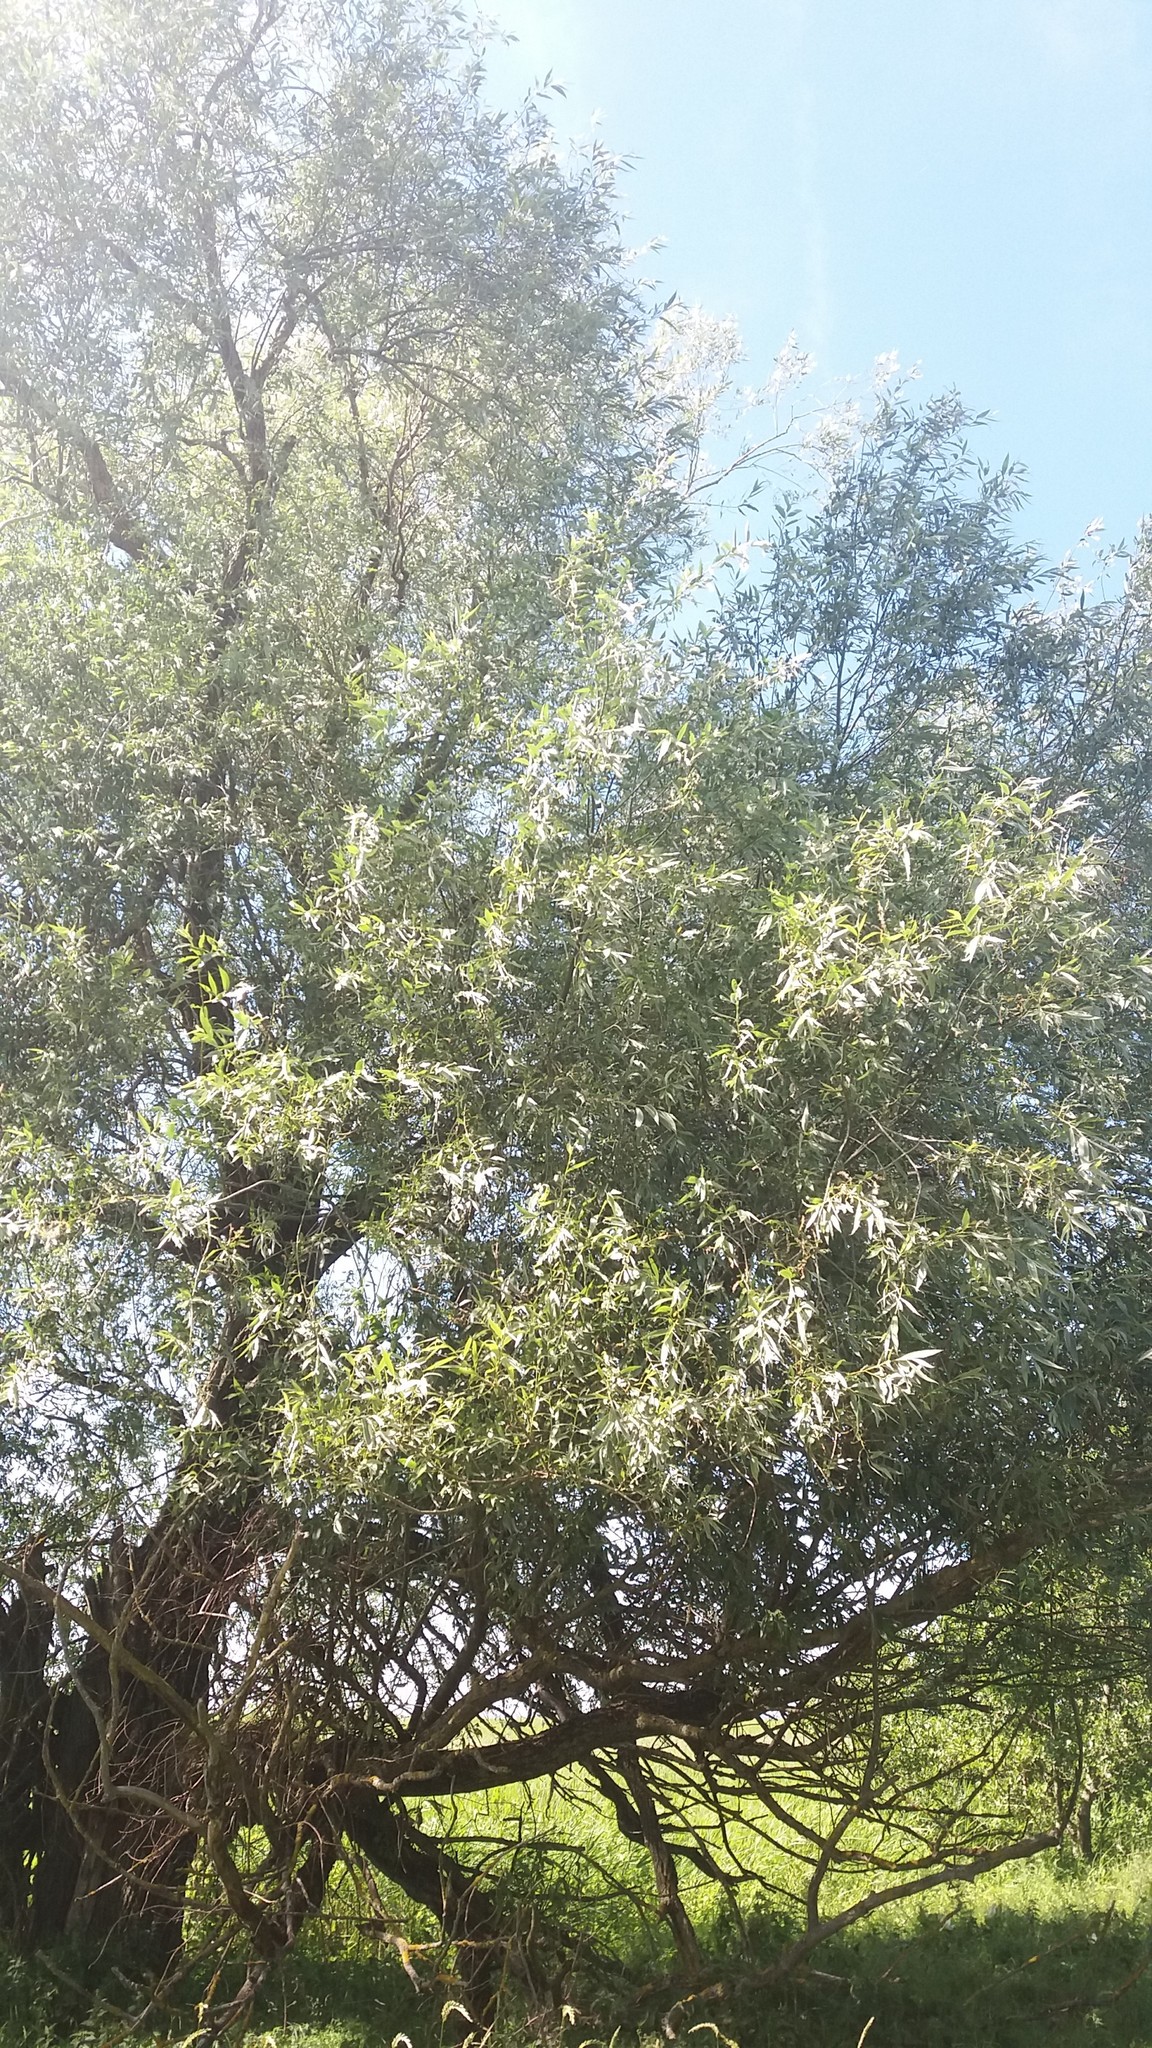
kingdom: Plantae
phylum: Tracheophyta
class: Magnoliopsida
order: Malpighiales
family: Salicaceae
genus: Salix
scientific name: Salix alba
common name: White willow
